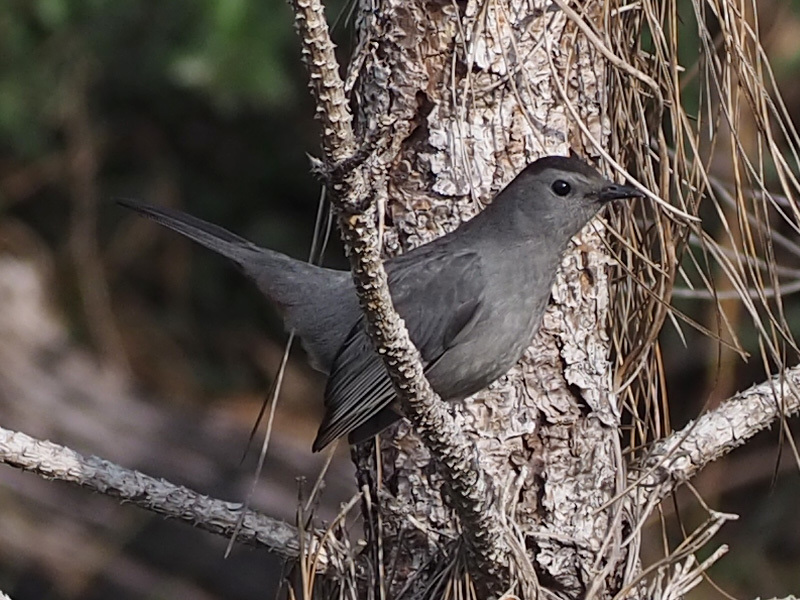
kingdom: Animalia
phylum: Chordata
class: Aves
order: Passeriformes
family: Mimidae
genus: Dumetella
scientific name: Dumetella carolinensis
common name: Gray catbird
